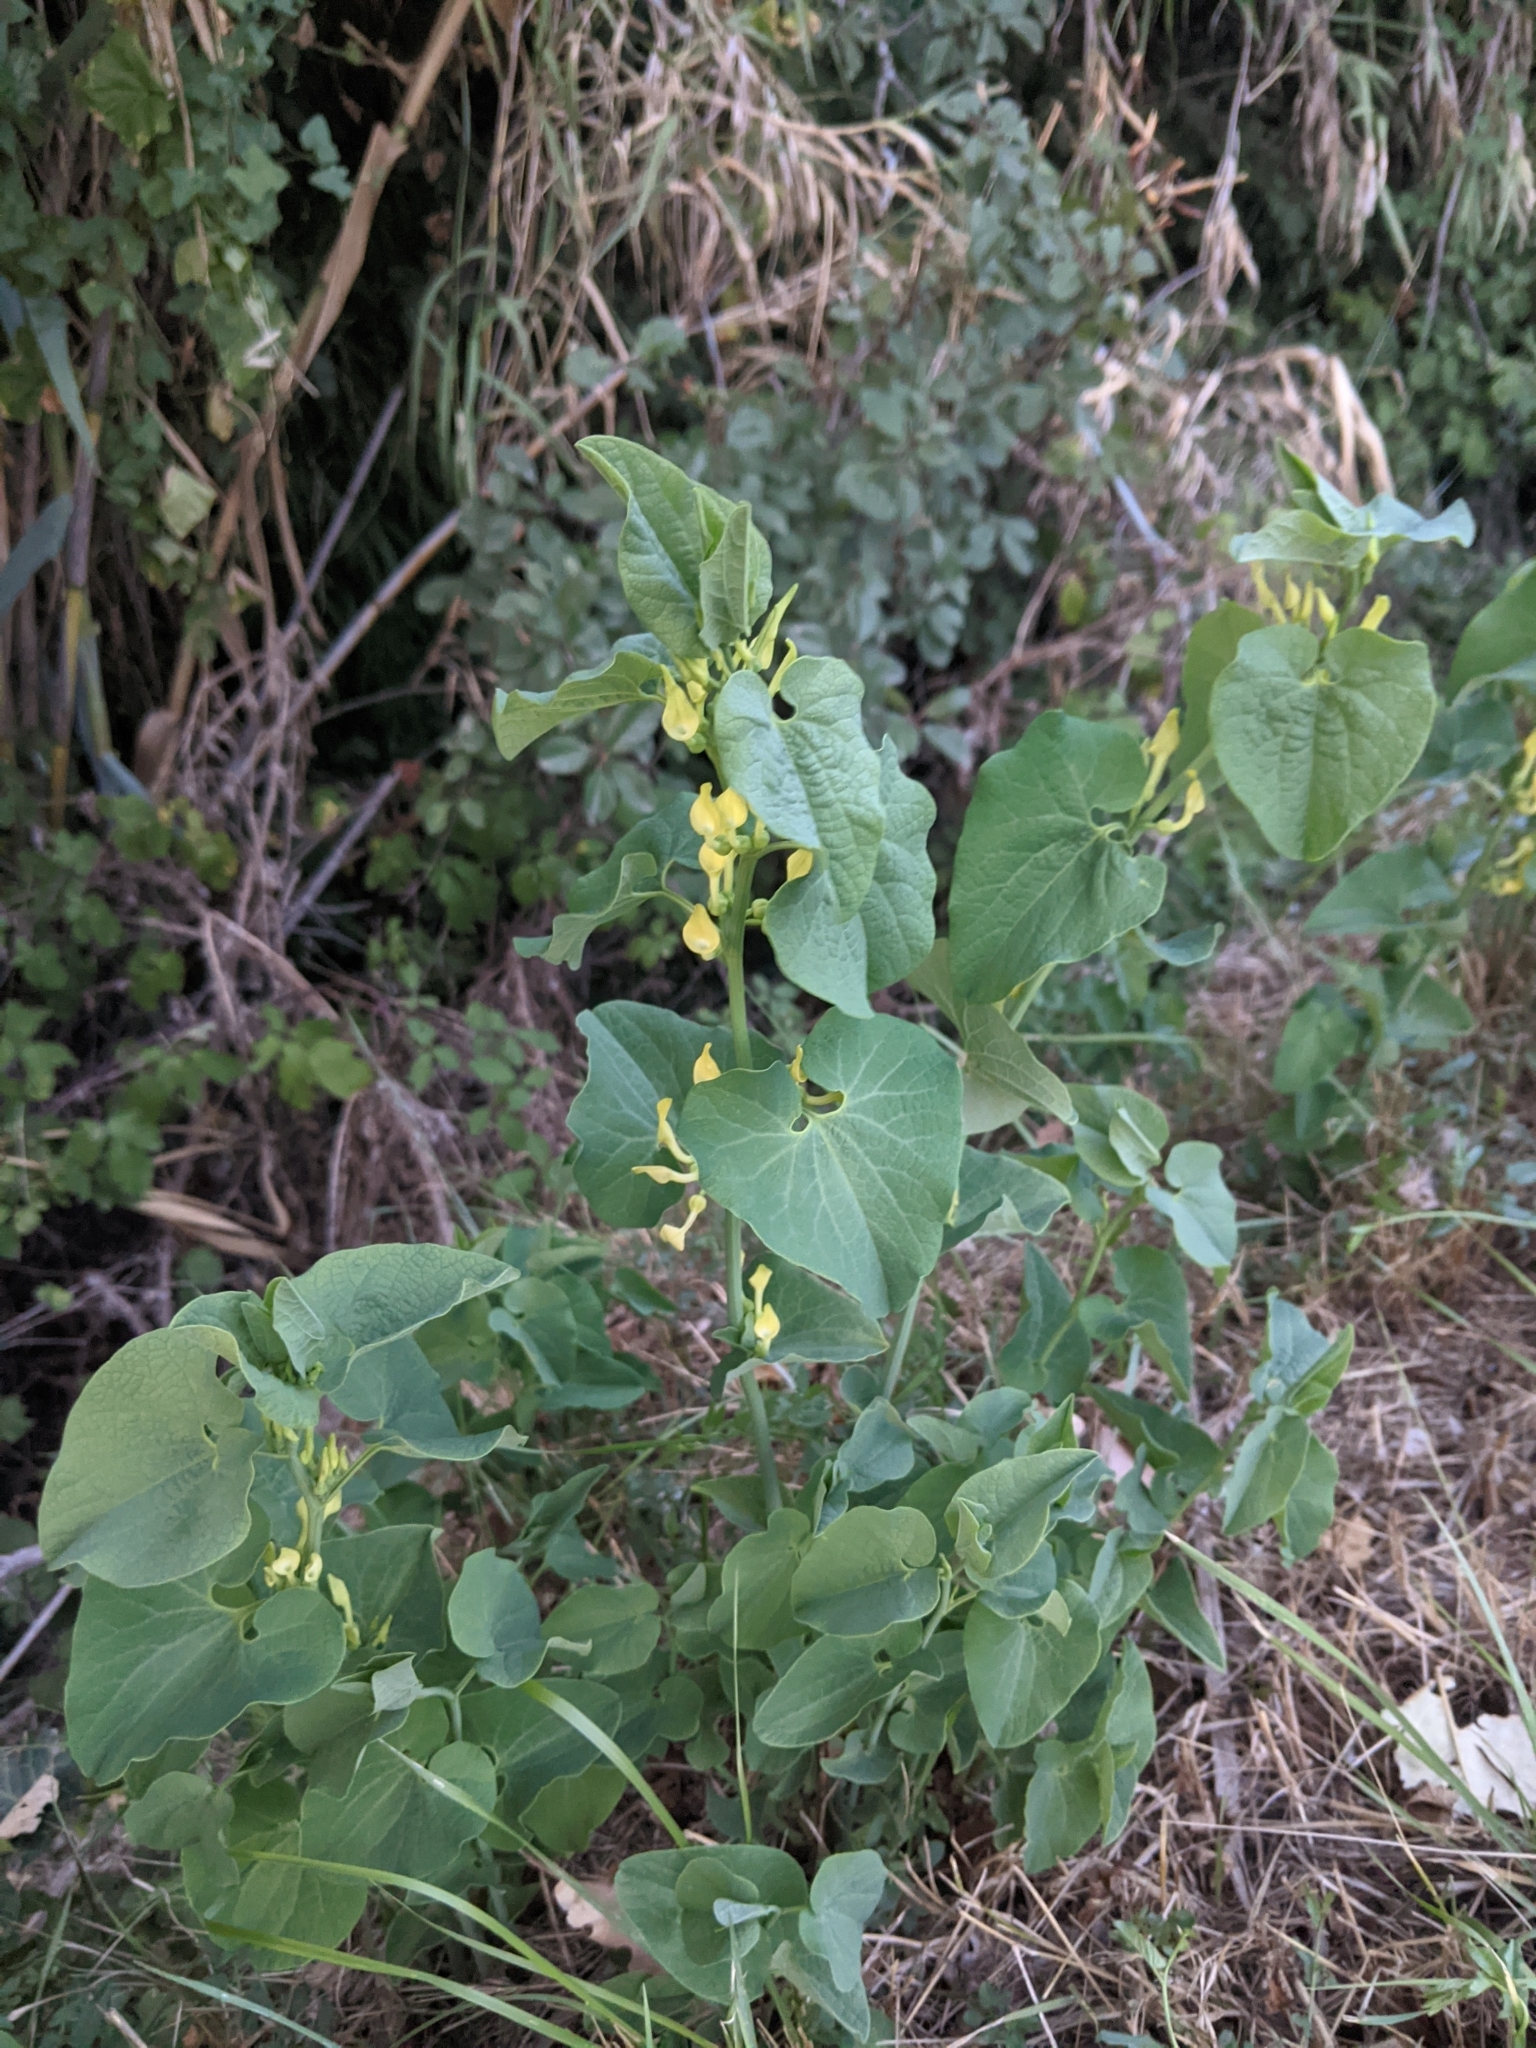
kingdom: Plantae
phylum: Tracheophyta
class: Magnoliopsida
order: Piperales
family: Aristolochiaceae
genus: Aristolochia
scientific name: Aristolochia clematitis
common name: Birthwort
